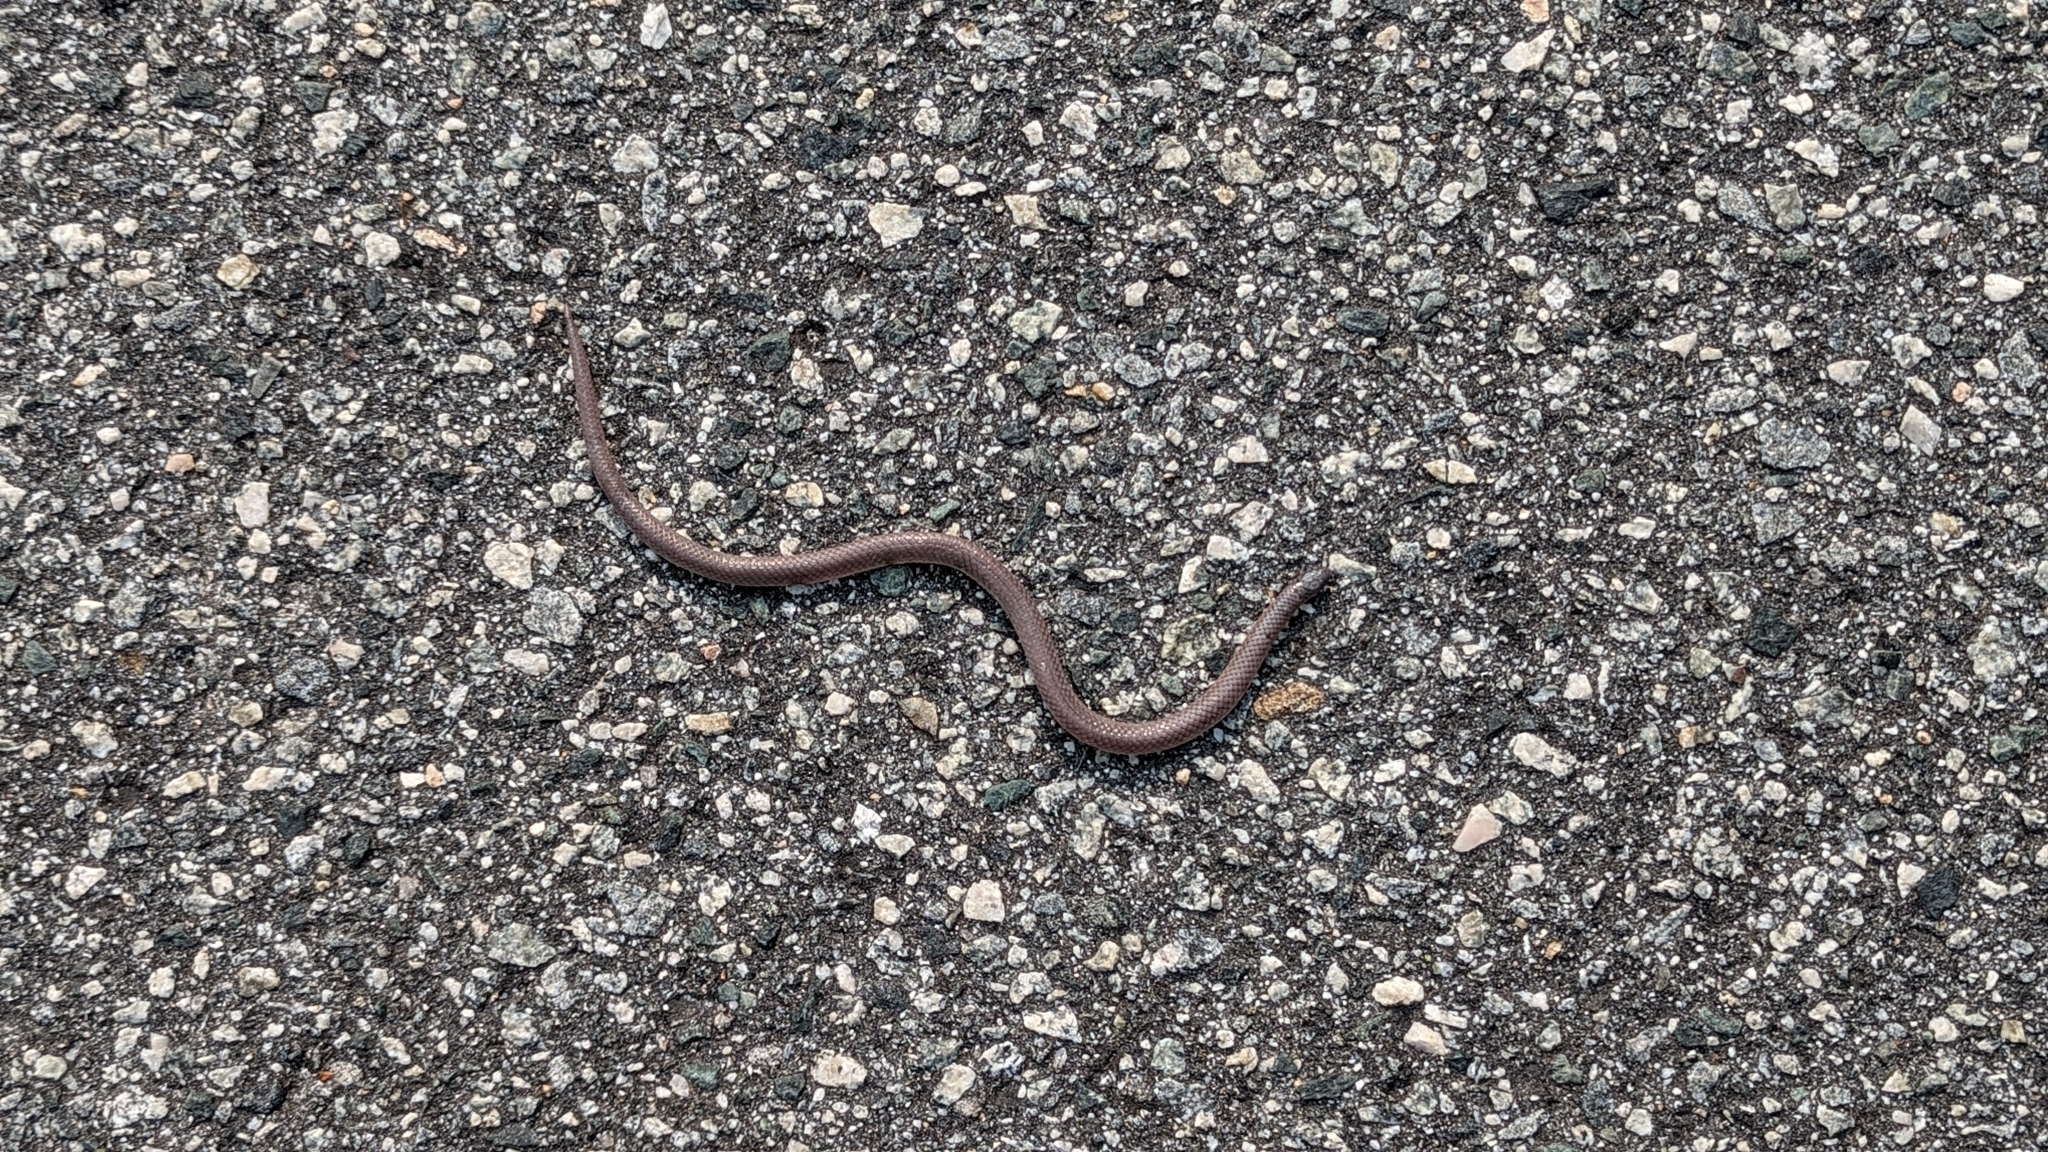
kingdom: Animalia
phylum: Chordata
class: Squamata
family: Colubridae
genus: Carphophis
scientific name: Carphophis amoenus
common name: Eastern worm snake
